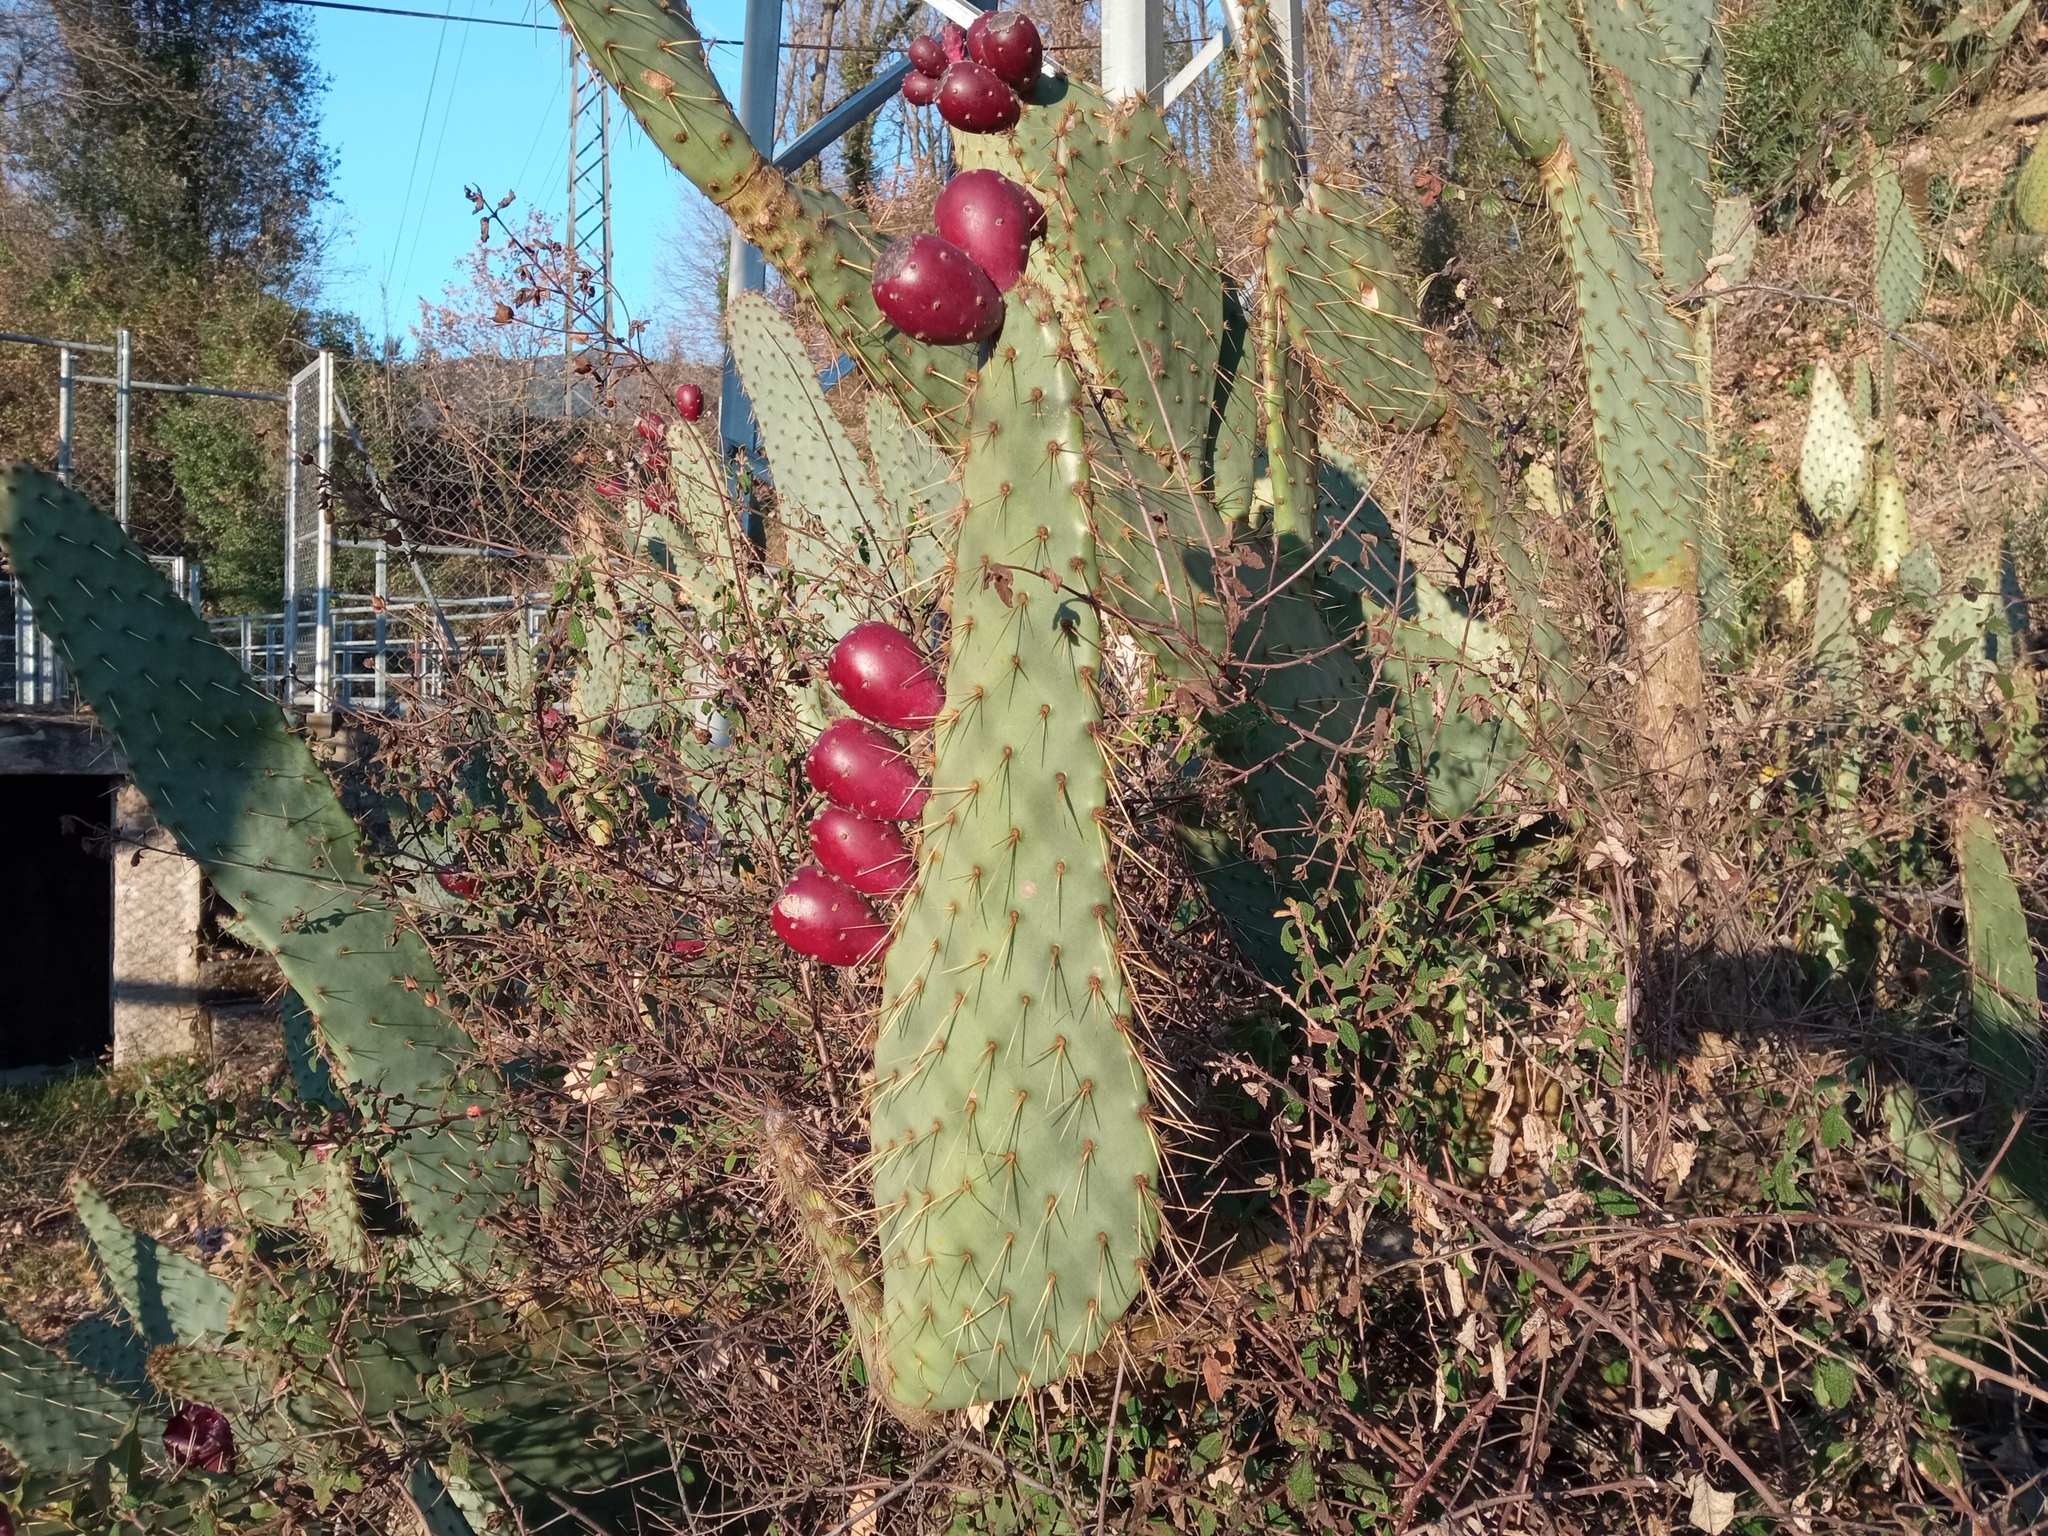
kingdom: Plantae
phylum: Tracheophyta
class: Magnoliopsida
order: Caryophyllales
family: Cactaceae
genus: Opuntia
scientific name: Opuntia engelmannii
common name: Cactus-apple
